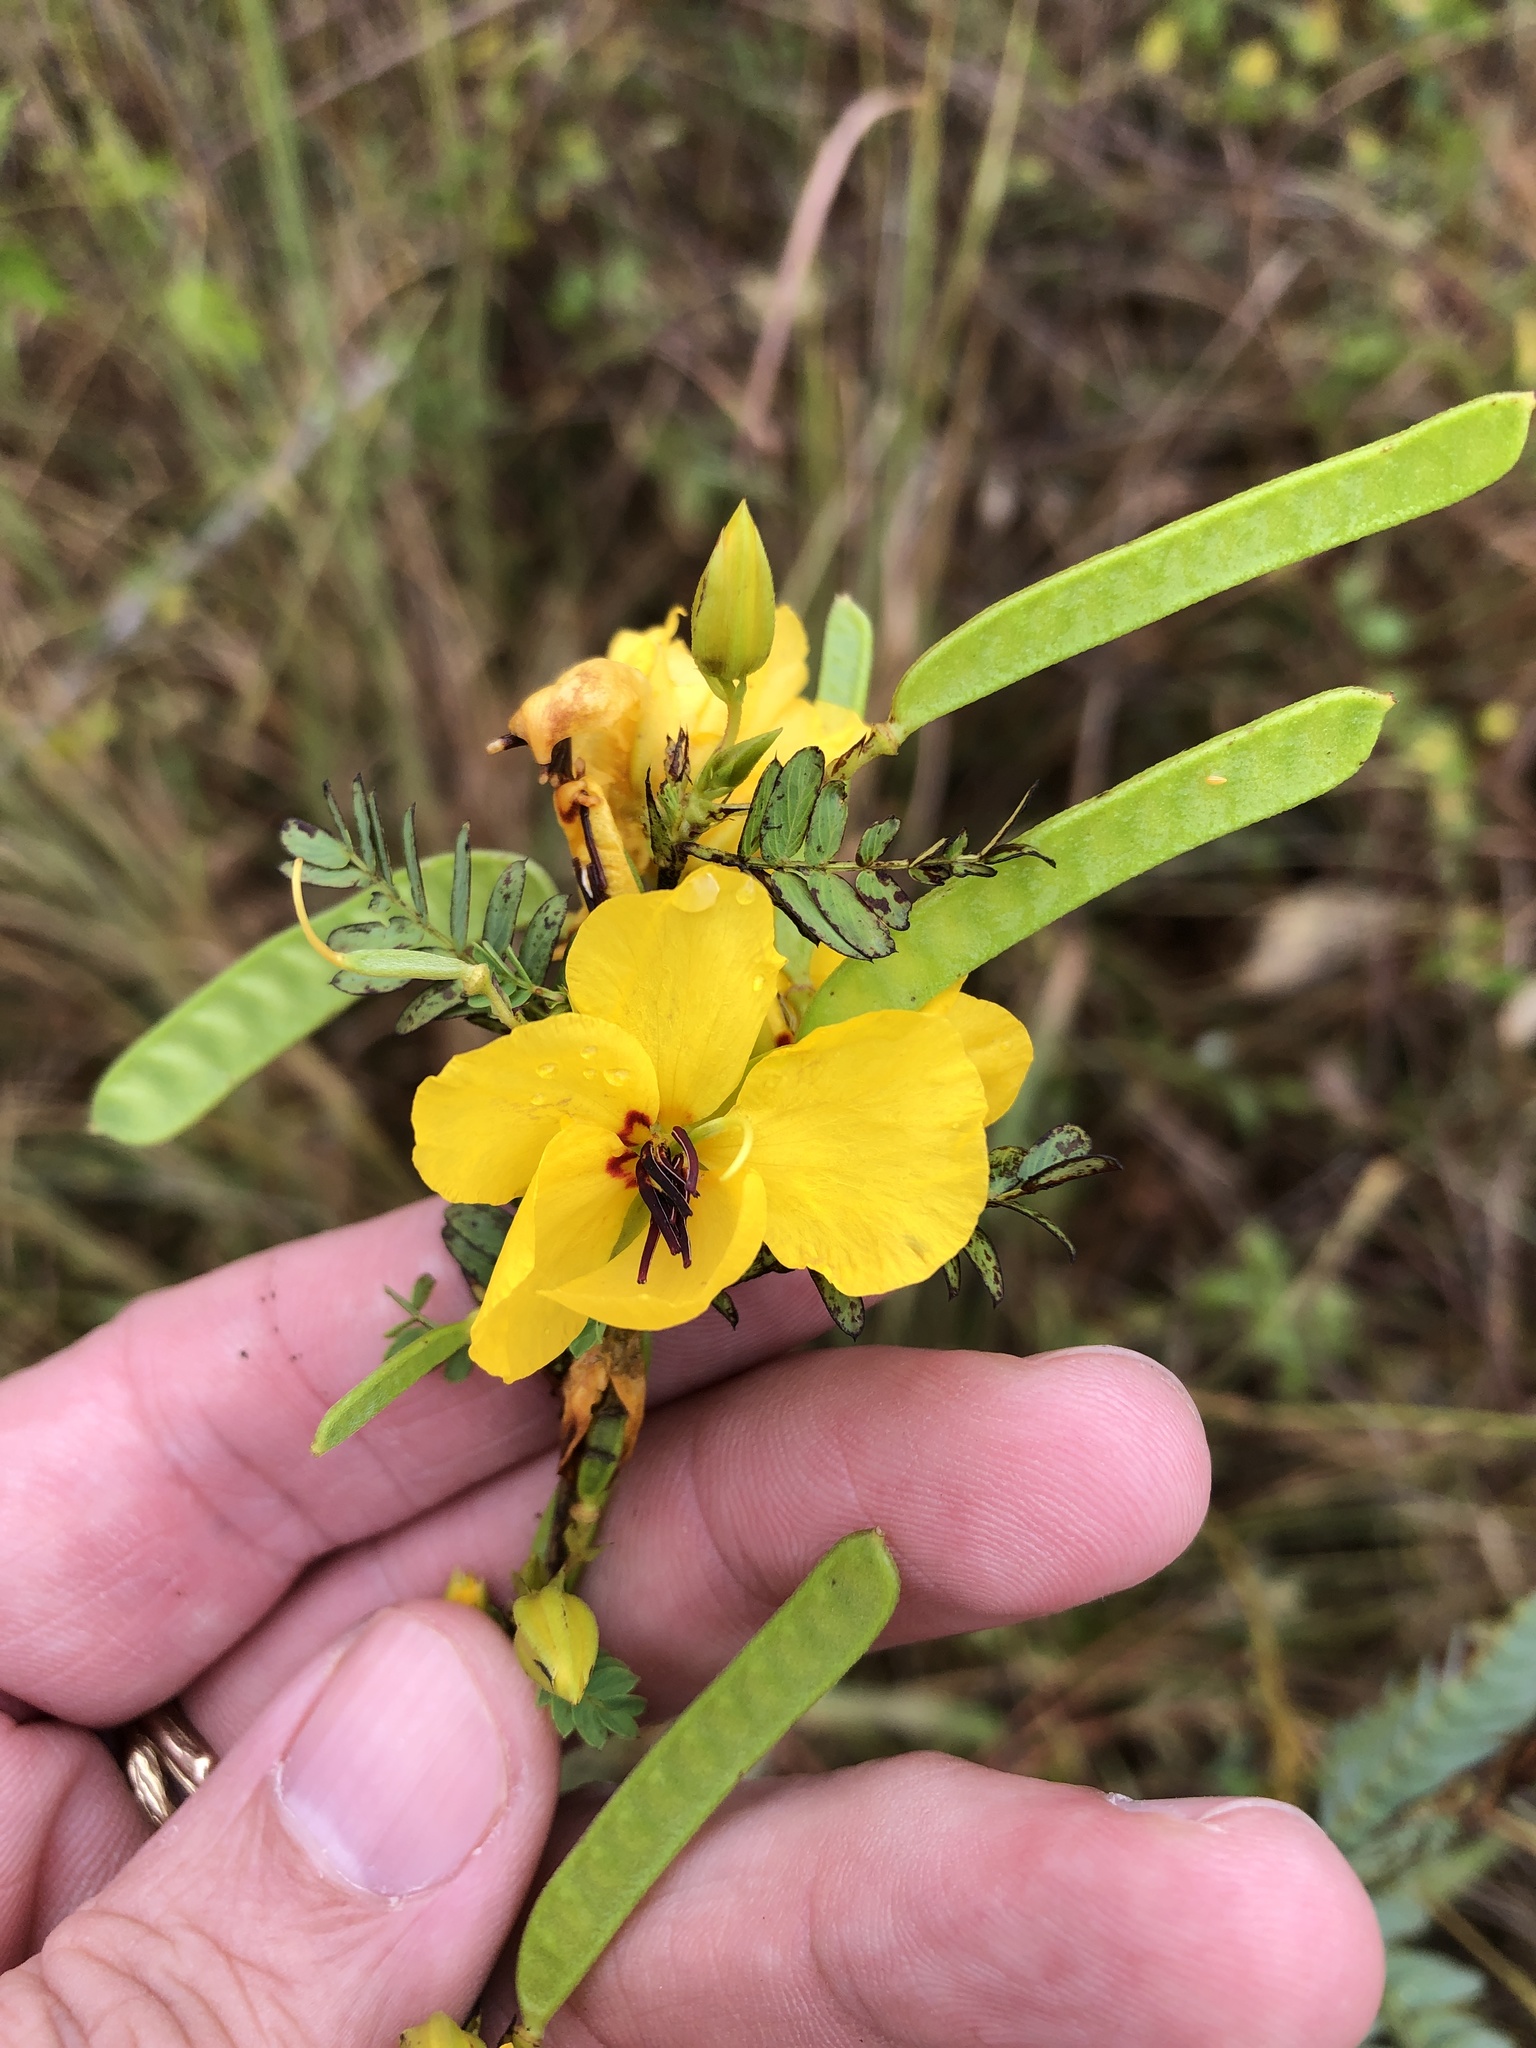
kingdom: Plantae
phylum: Tracheophyta
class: Magnoliopsida
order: Fabales
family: Fabaceae
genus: Chamaecrista
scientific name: Chamaecrista fasciculata
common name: Golden cassia
